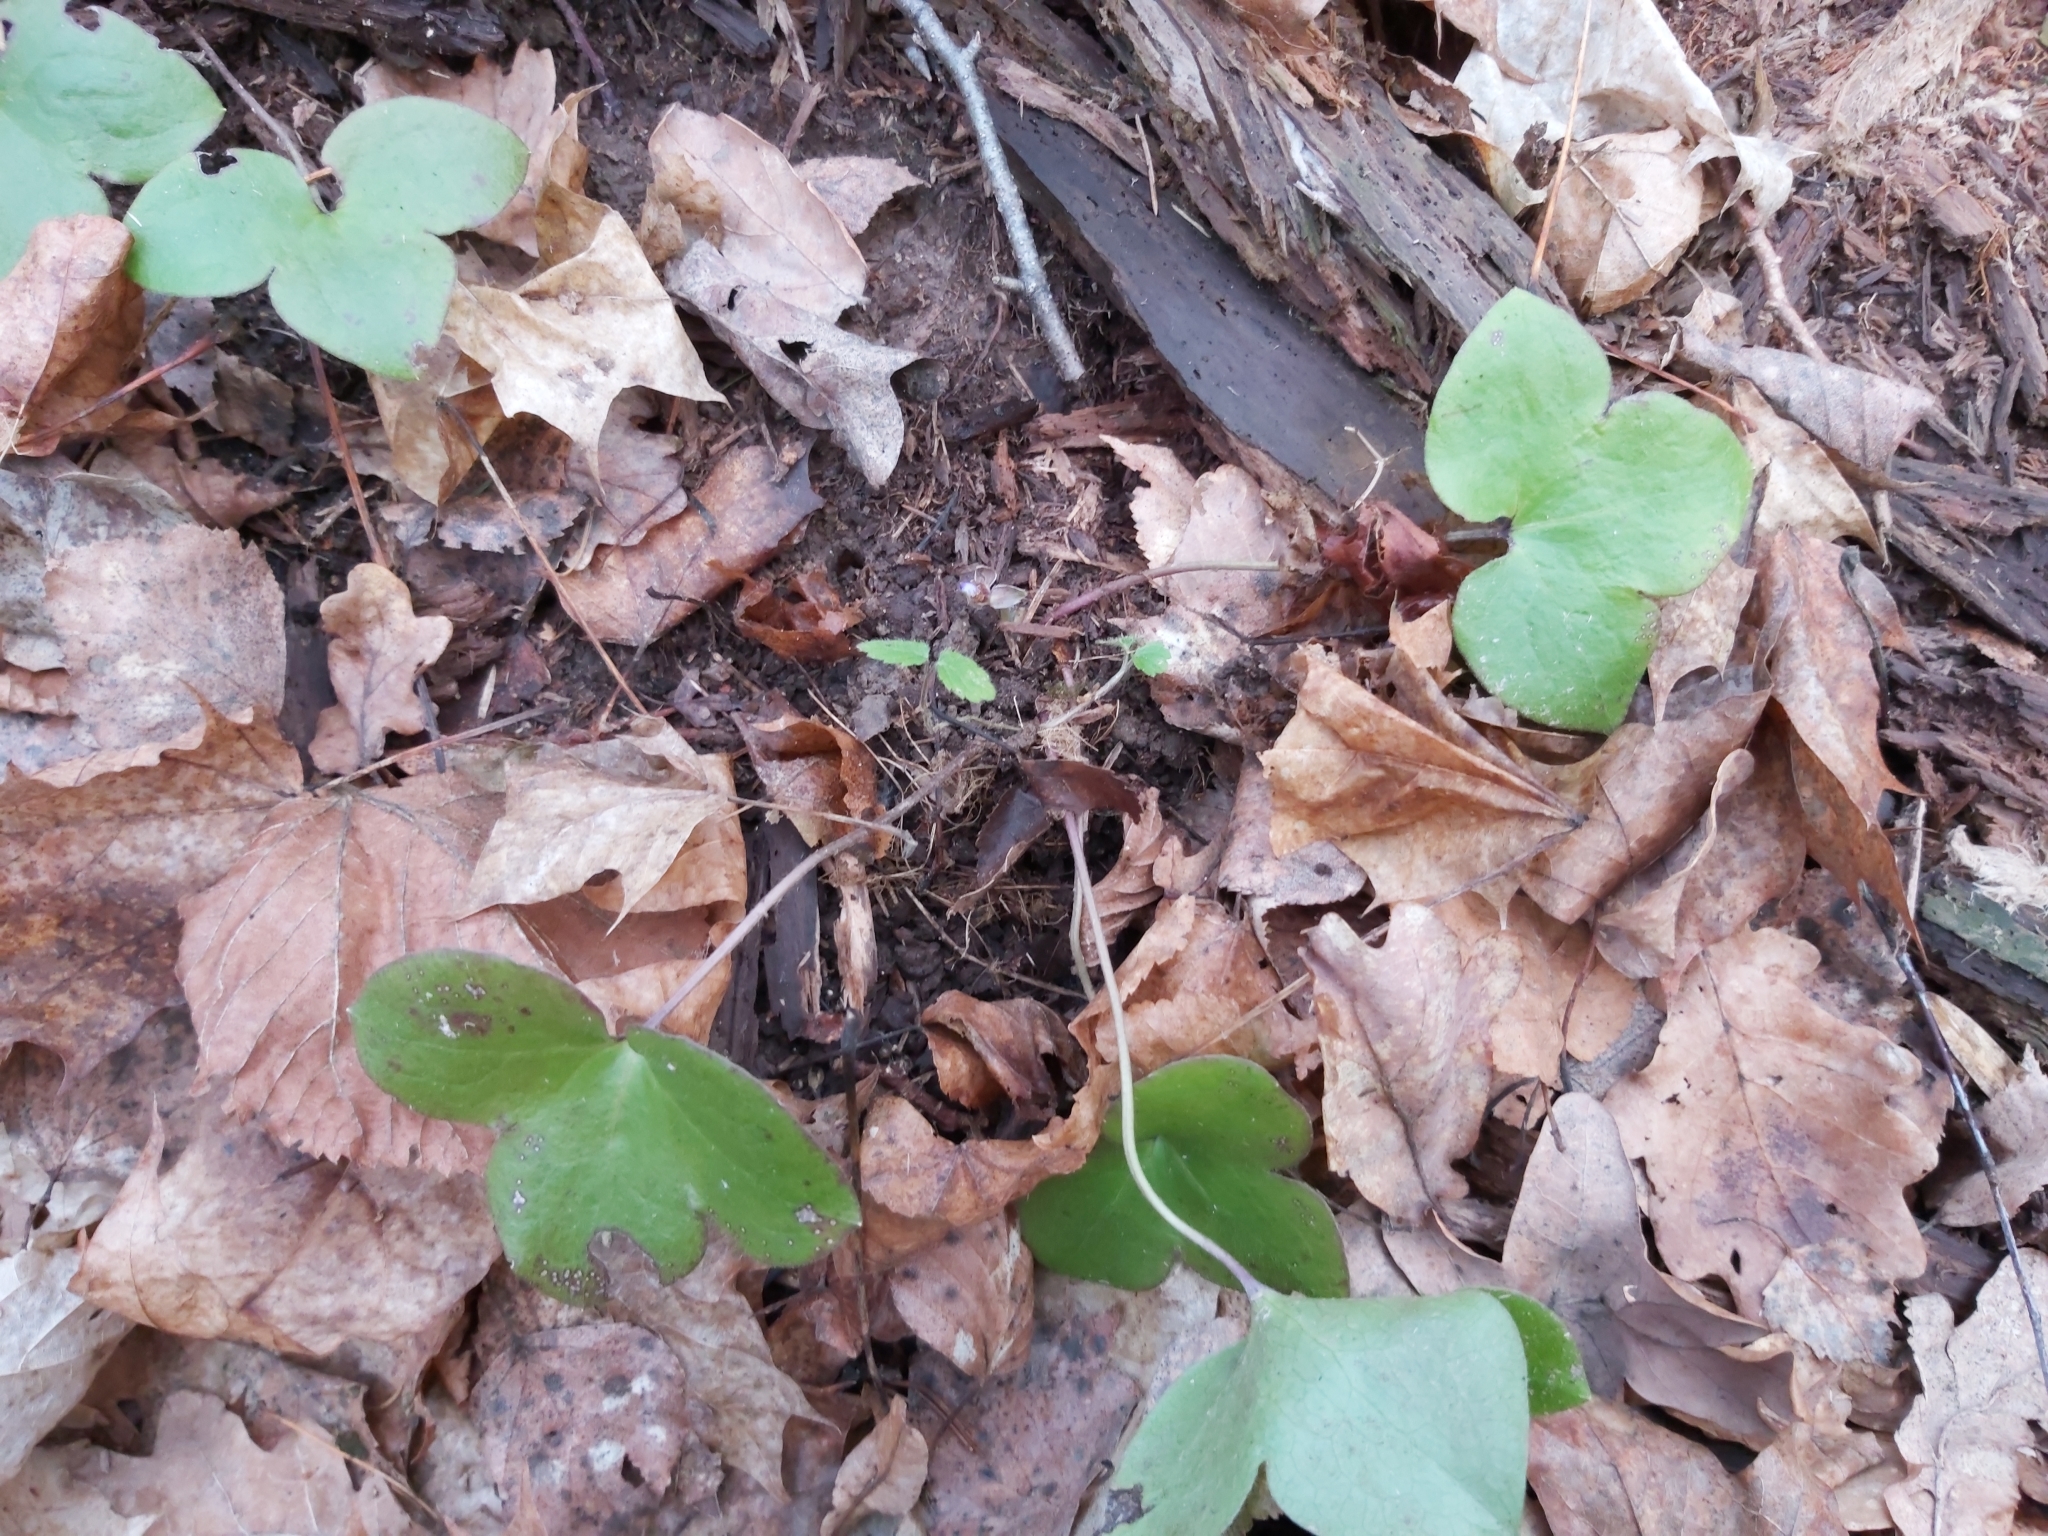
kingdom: Plantae
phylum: Tracheophyta
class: Magnoliopsida
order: Ranunculales
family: Ranunculaceae
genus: Hepatica
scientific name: Hepatica nobilis
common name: Liverleaf
